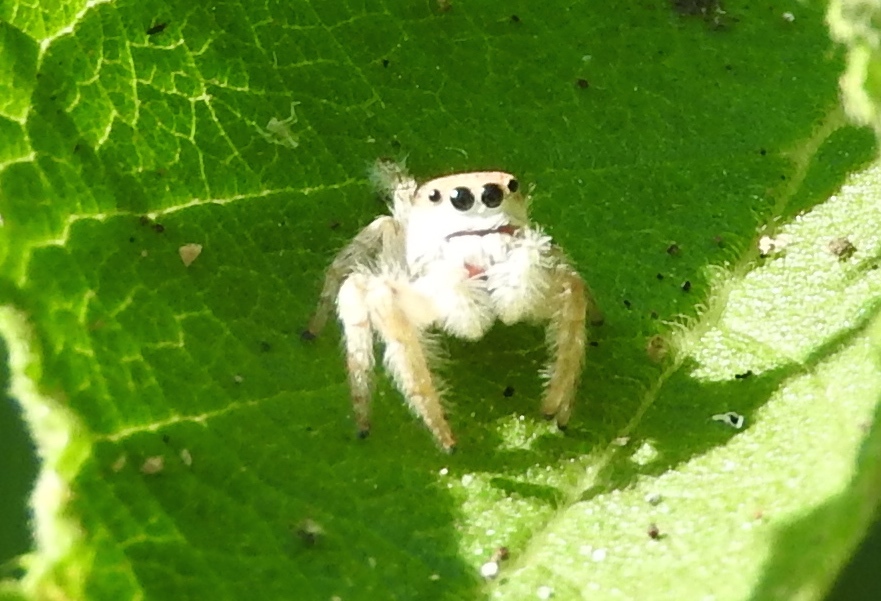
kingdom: Animalia
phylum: Arthropoda
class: Arachnida
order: Araneae
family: Salticidae
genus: Paraphidippus
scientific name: Paraphidippus fartilis
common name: Jumping spiders
